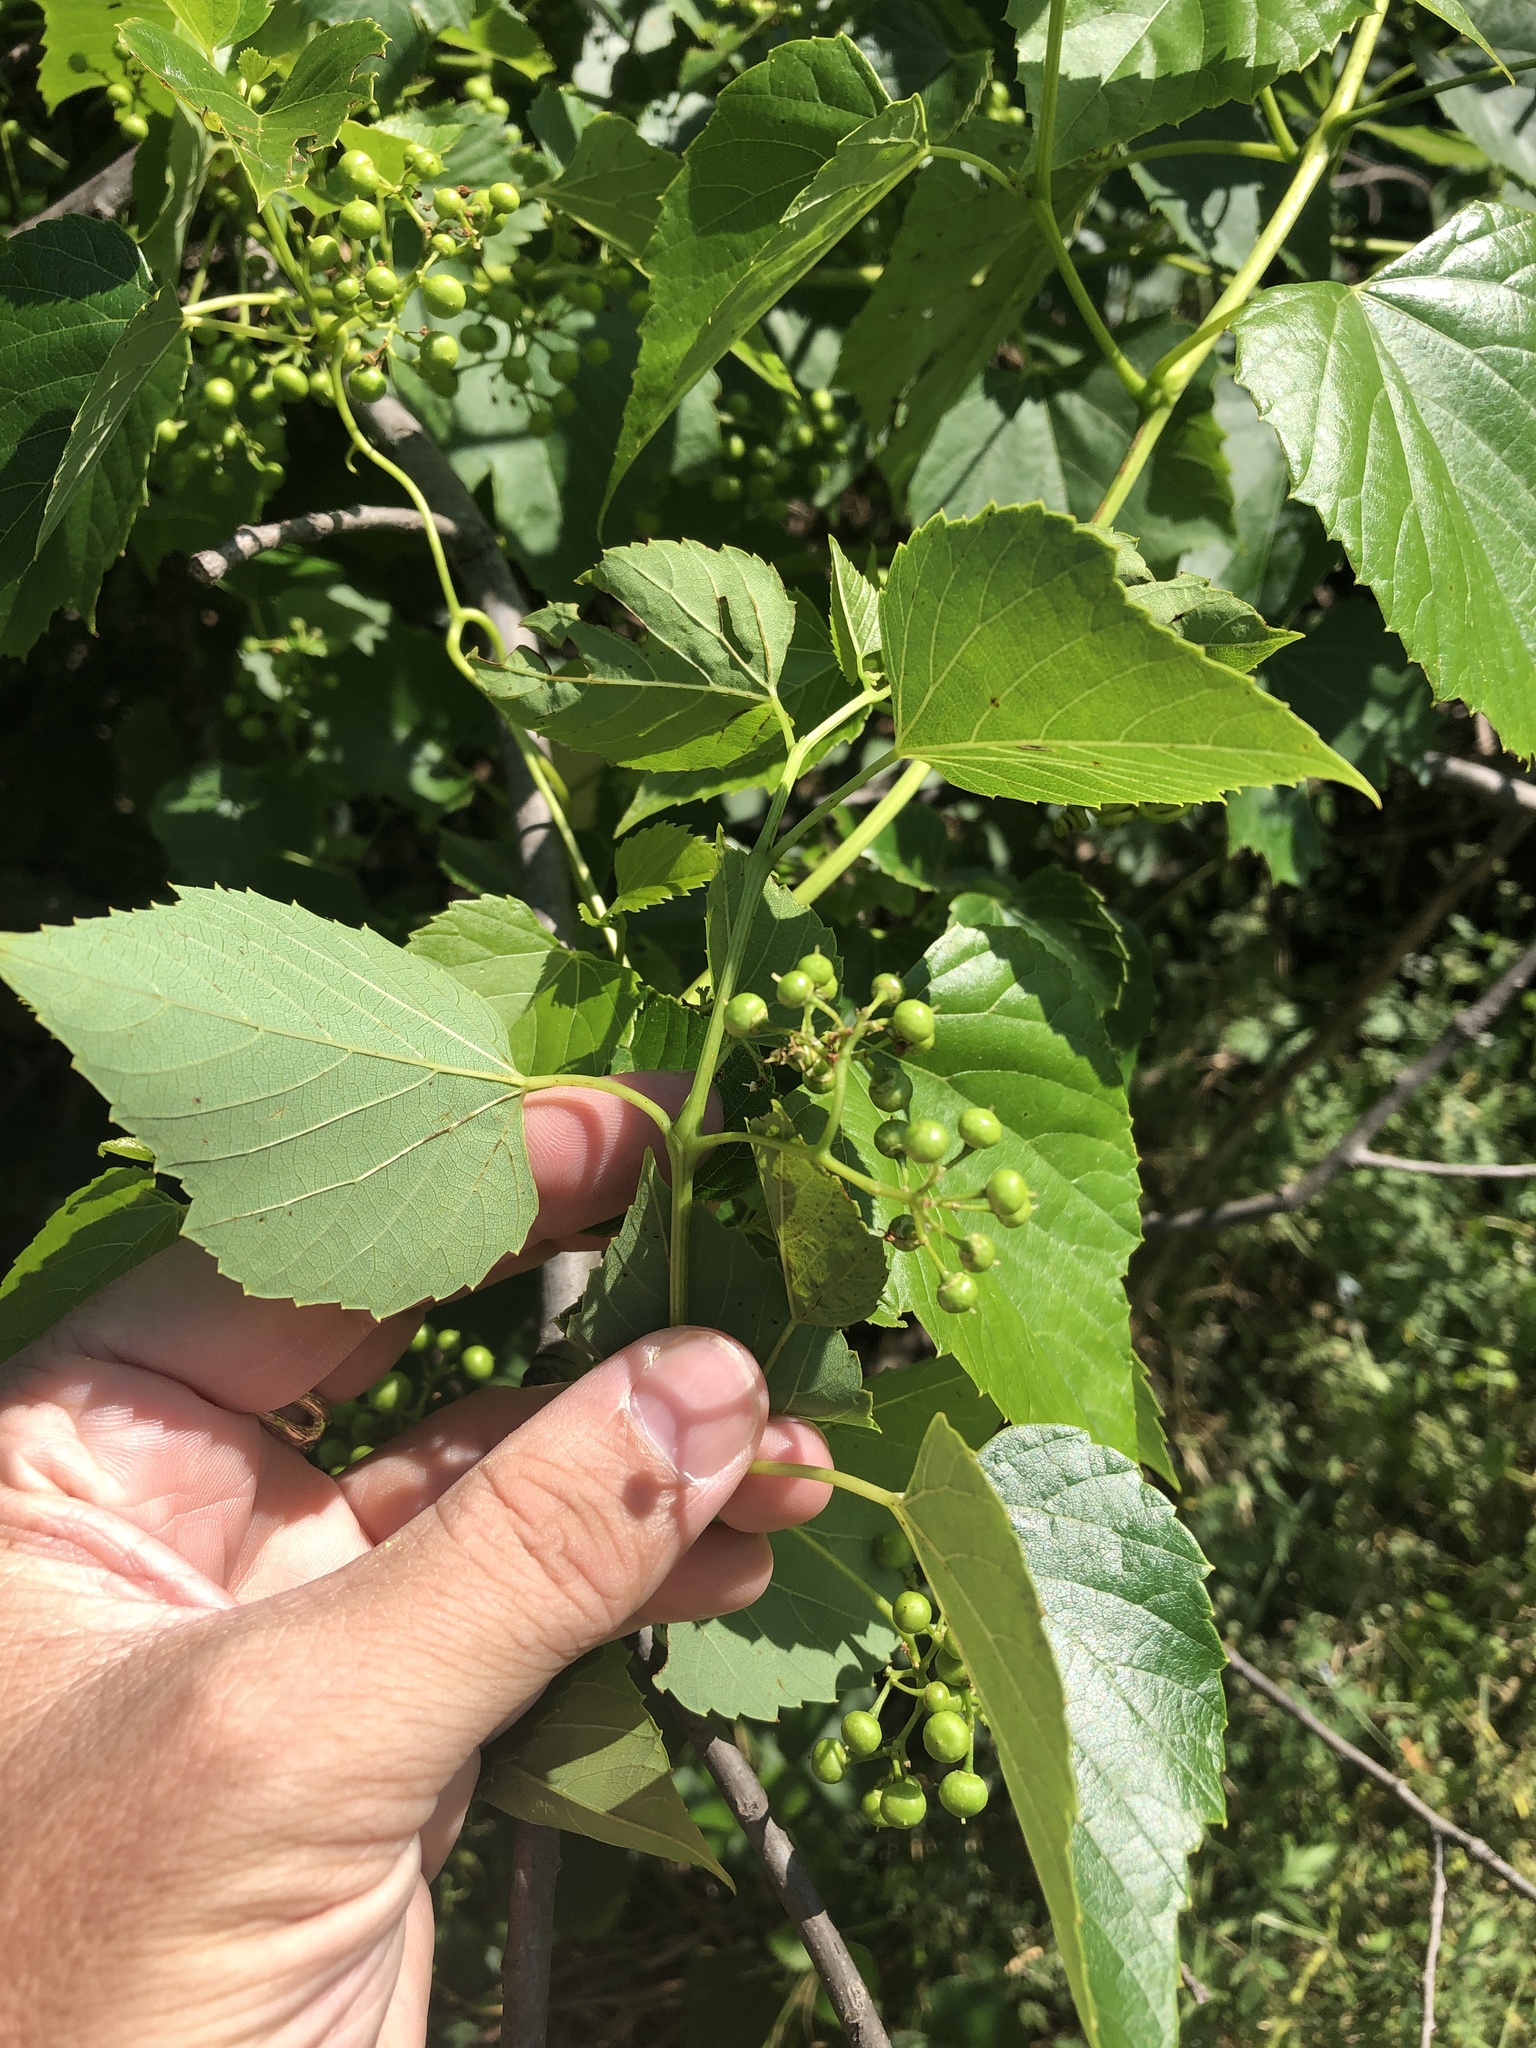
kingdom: Plantae
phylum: Tracheophyta
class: Magnoliopsida
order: Vitales
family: Vitaceae
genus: Ampelopsis
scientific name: Ampelopsis cordata
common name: Heart-leaf ampelopsis
